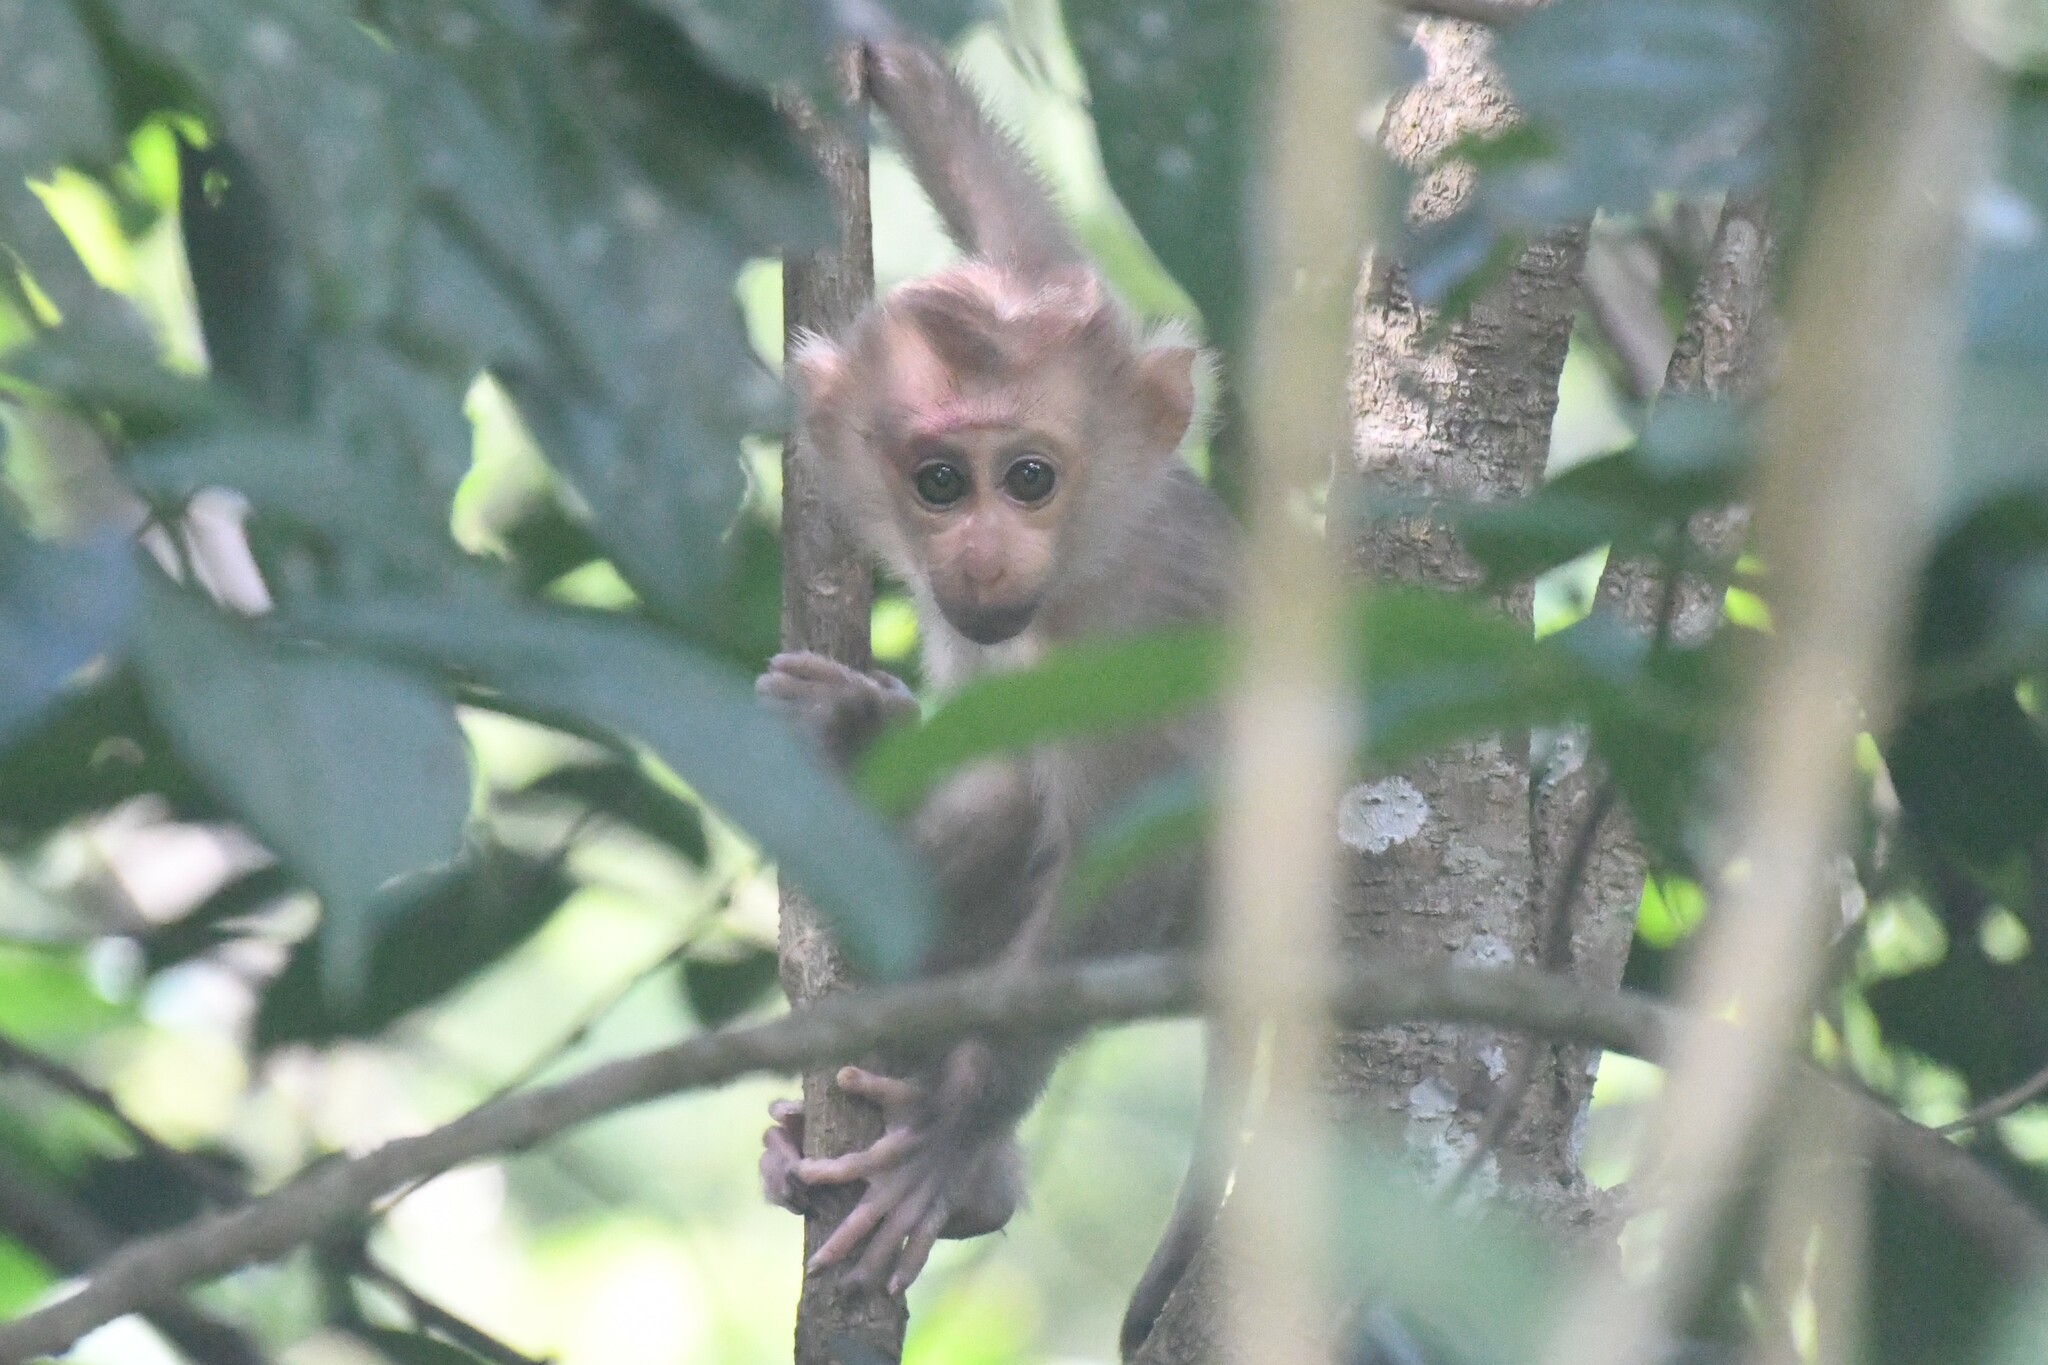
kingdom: Animalia
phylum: Chordata
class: Mammalia
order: Primates
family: Cercopithecidae
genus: Macaca
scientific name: Macaca leonina
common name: Northern pig-tailed macaque
